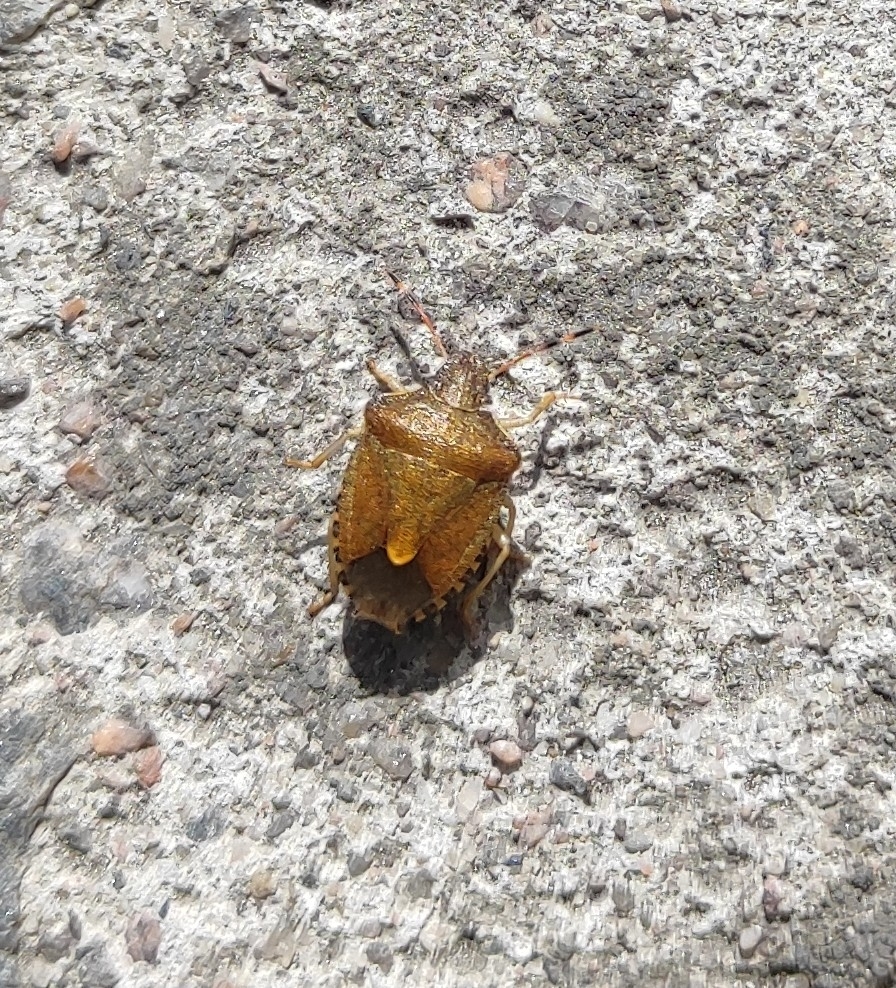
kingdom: Animalia
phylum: Arthropoda
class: Insecta
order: Hemiptera
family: Pentatomidae
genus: Holcostethus
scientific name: Holcostethus strictus
